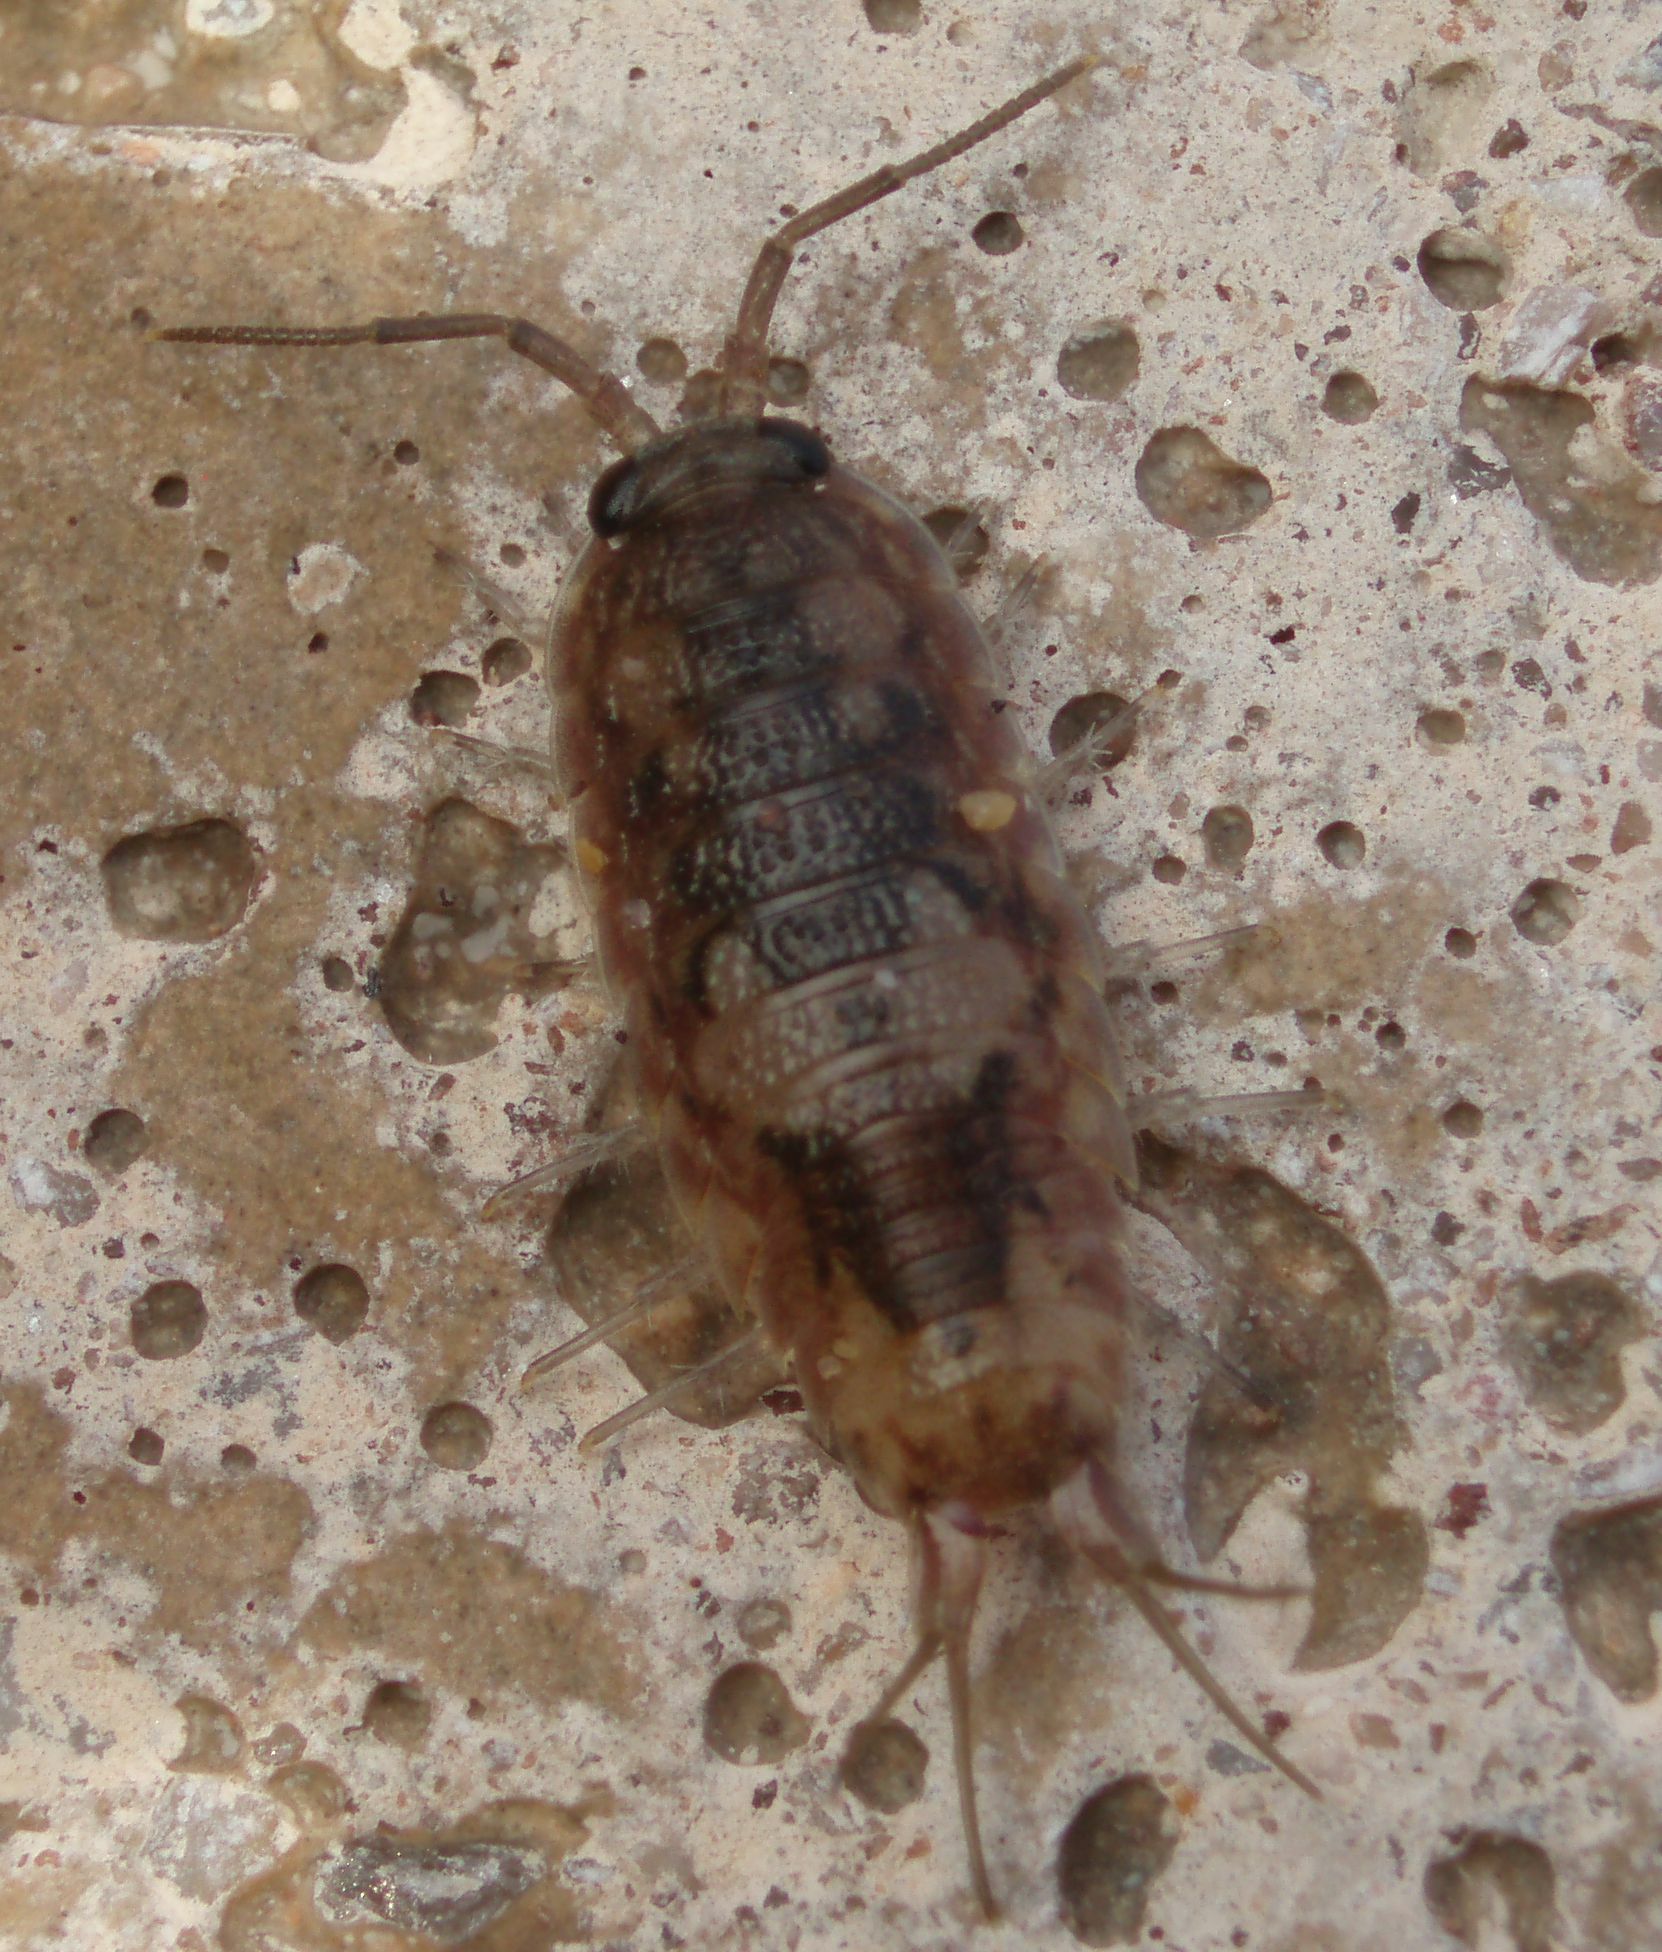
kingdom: Animalia
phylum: Arthropoda
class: Malacostraca
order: Isopoda
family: Ligiidae
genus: Ligia
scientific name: Ligia oceanica
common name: Sea slater
